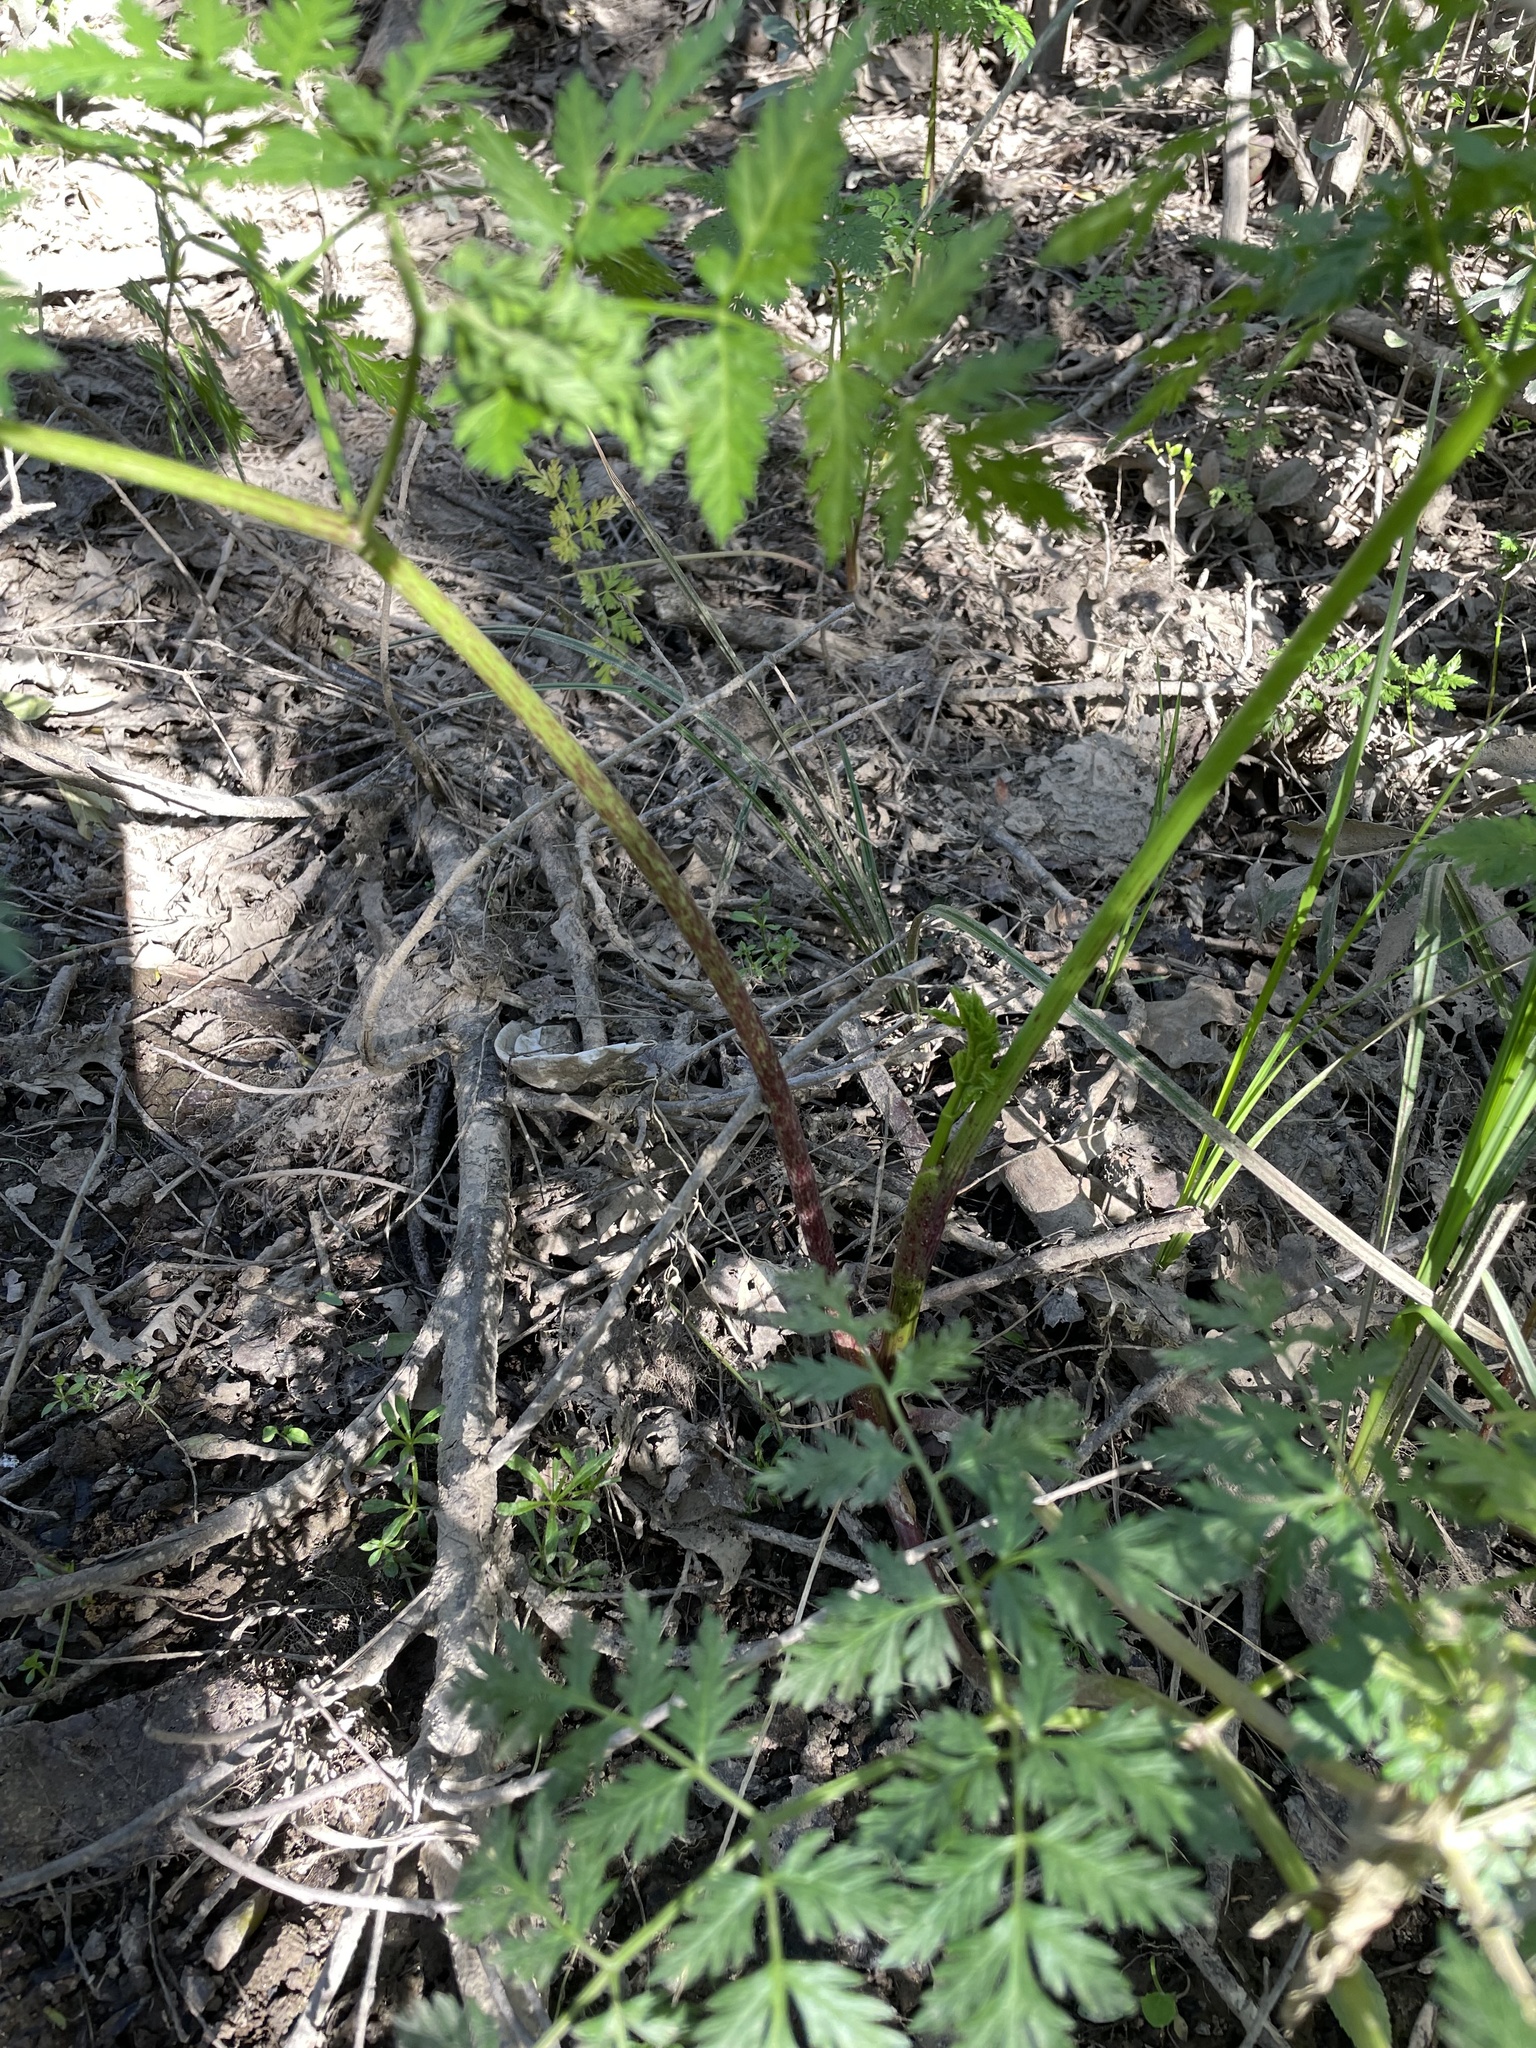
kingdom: Plantae
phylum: Tracheophyta
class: Magnoliopsida
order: Apiales
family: Apiaceae
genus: Conium
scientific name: Conium maculatum
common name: Hemlock
